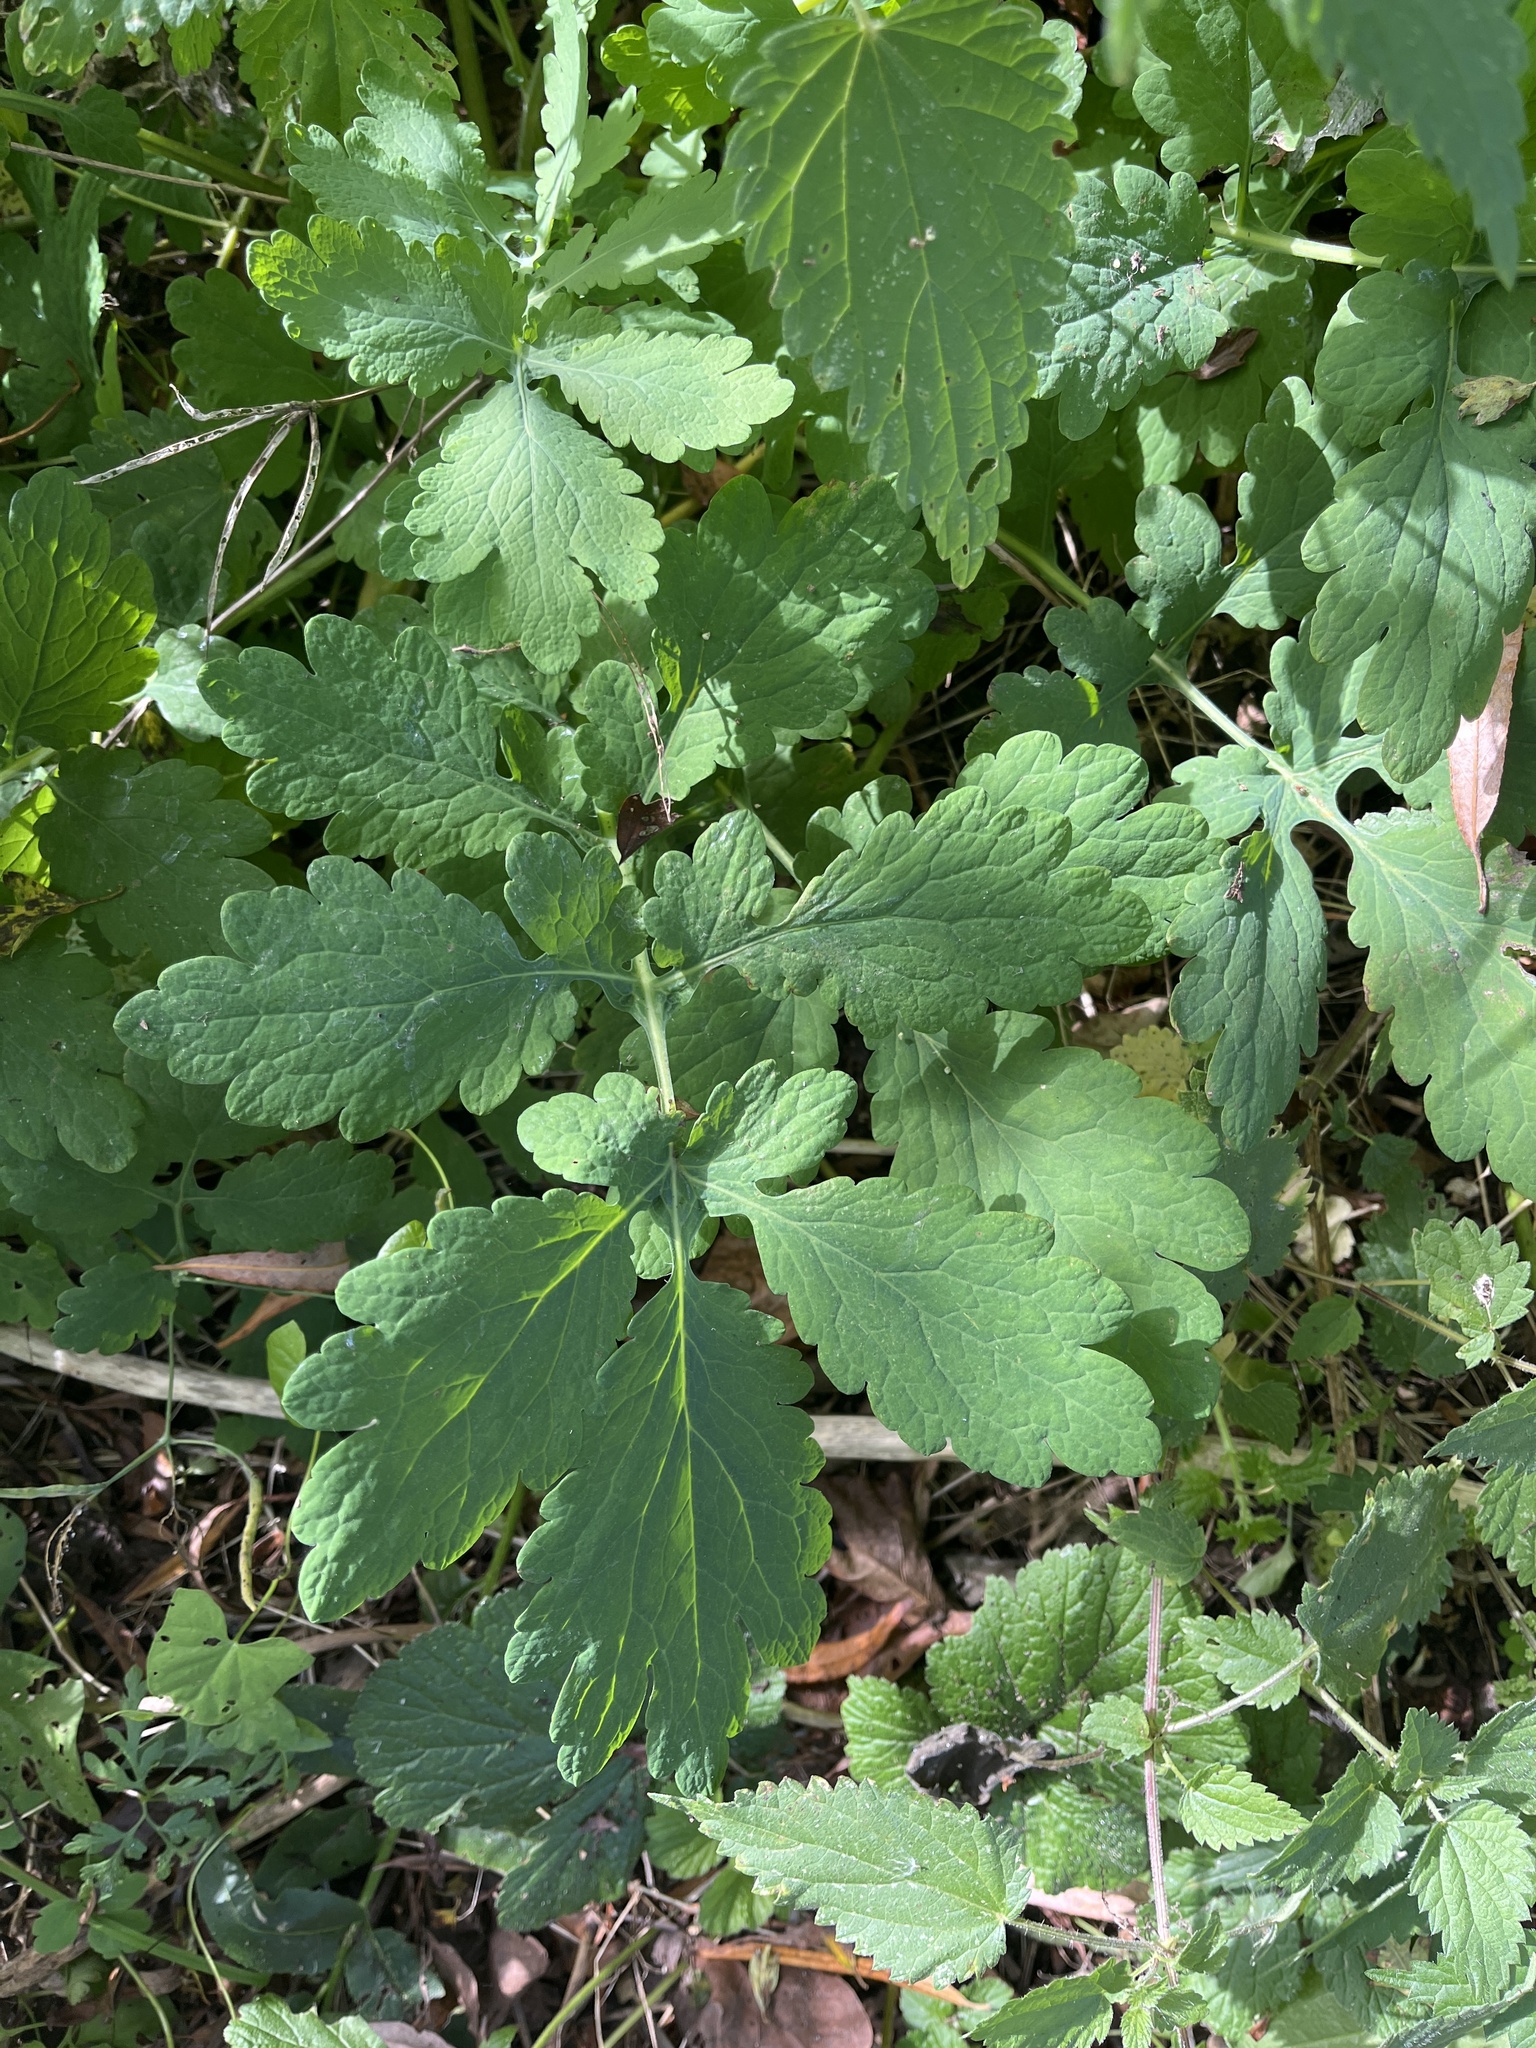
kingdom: Plantae
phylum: Tracheophyta
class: Magnoliopsida
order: Ranunculales
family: Papaveraceae
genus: Chelidonium
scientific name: Chelidonium majus
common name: Greater celandine
